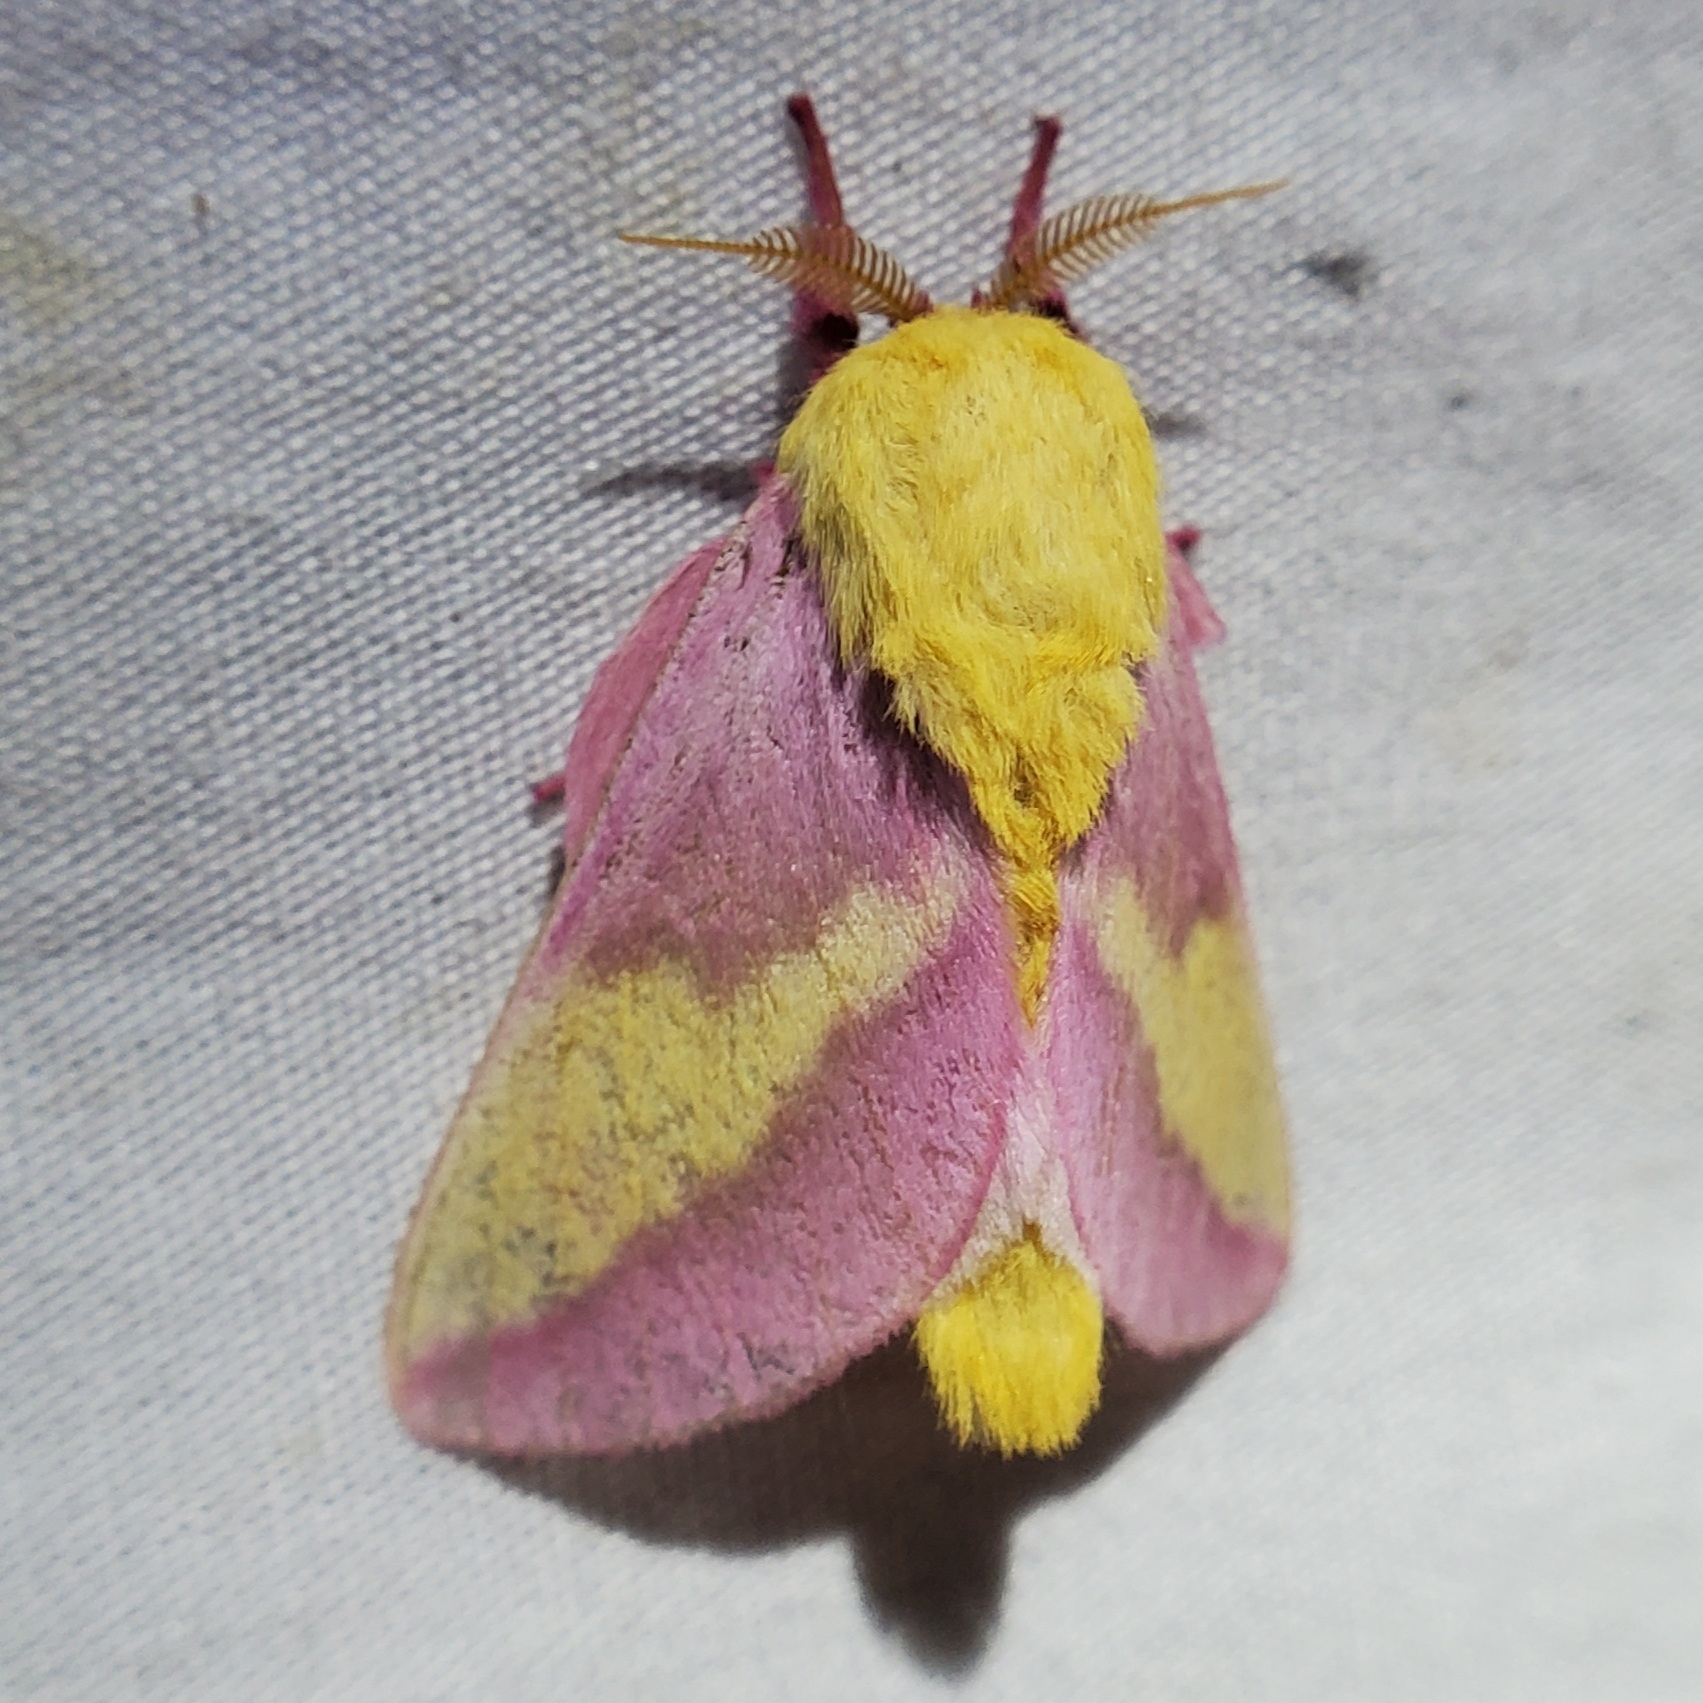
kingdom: Animalia
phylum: Arthropoda
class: Insecta
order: Lepidoptera
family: Saturniidae
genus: Dryocampa
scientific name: Dryocampa rubicunda
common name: Rosy maple moth
